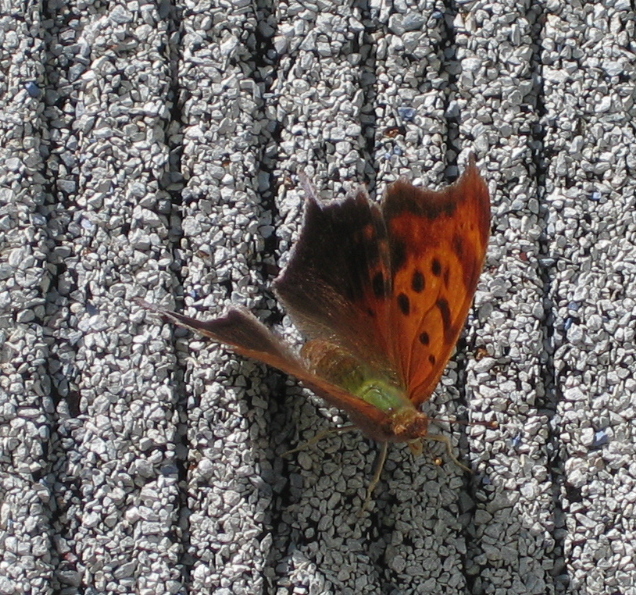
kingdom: Animalia
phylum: Arthropoda
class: Insecta
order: Lepidoptera
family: Nymphalidae
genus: Polygonia
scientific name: Polygonia interrogationis
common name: Question mark
